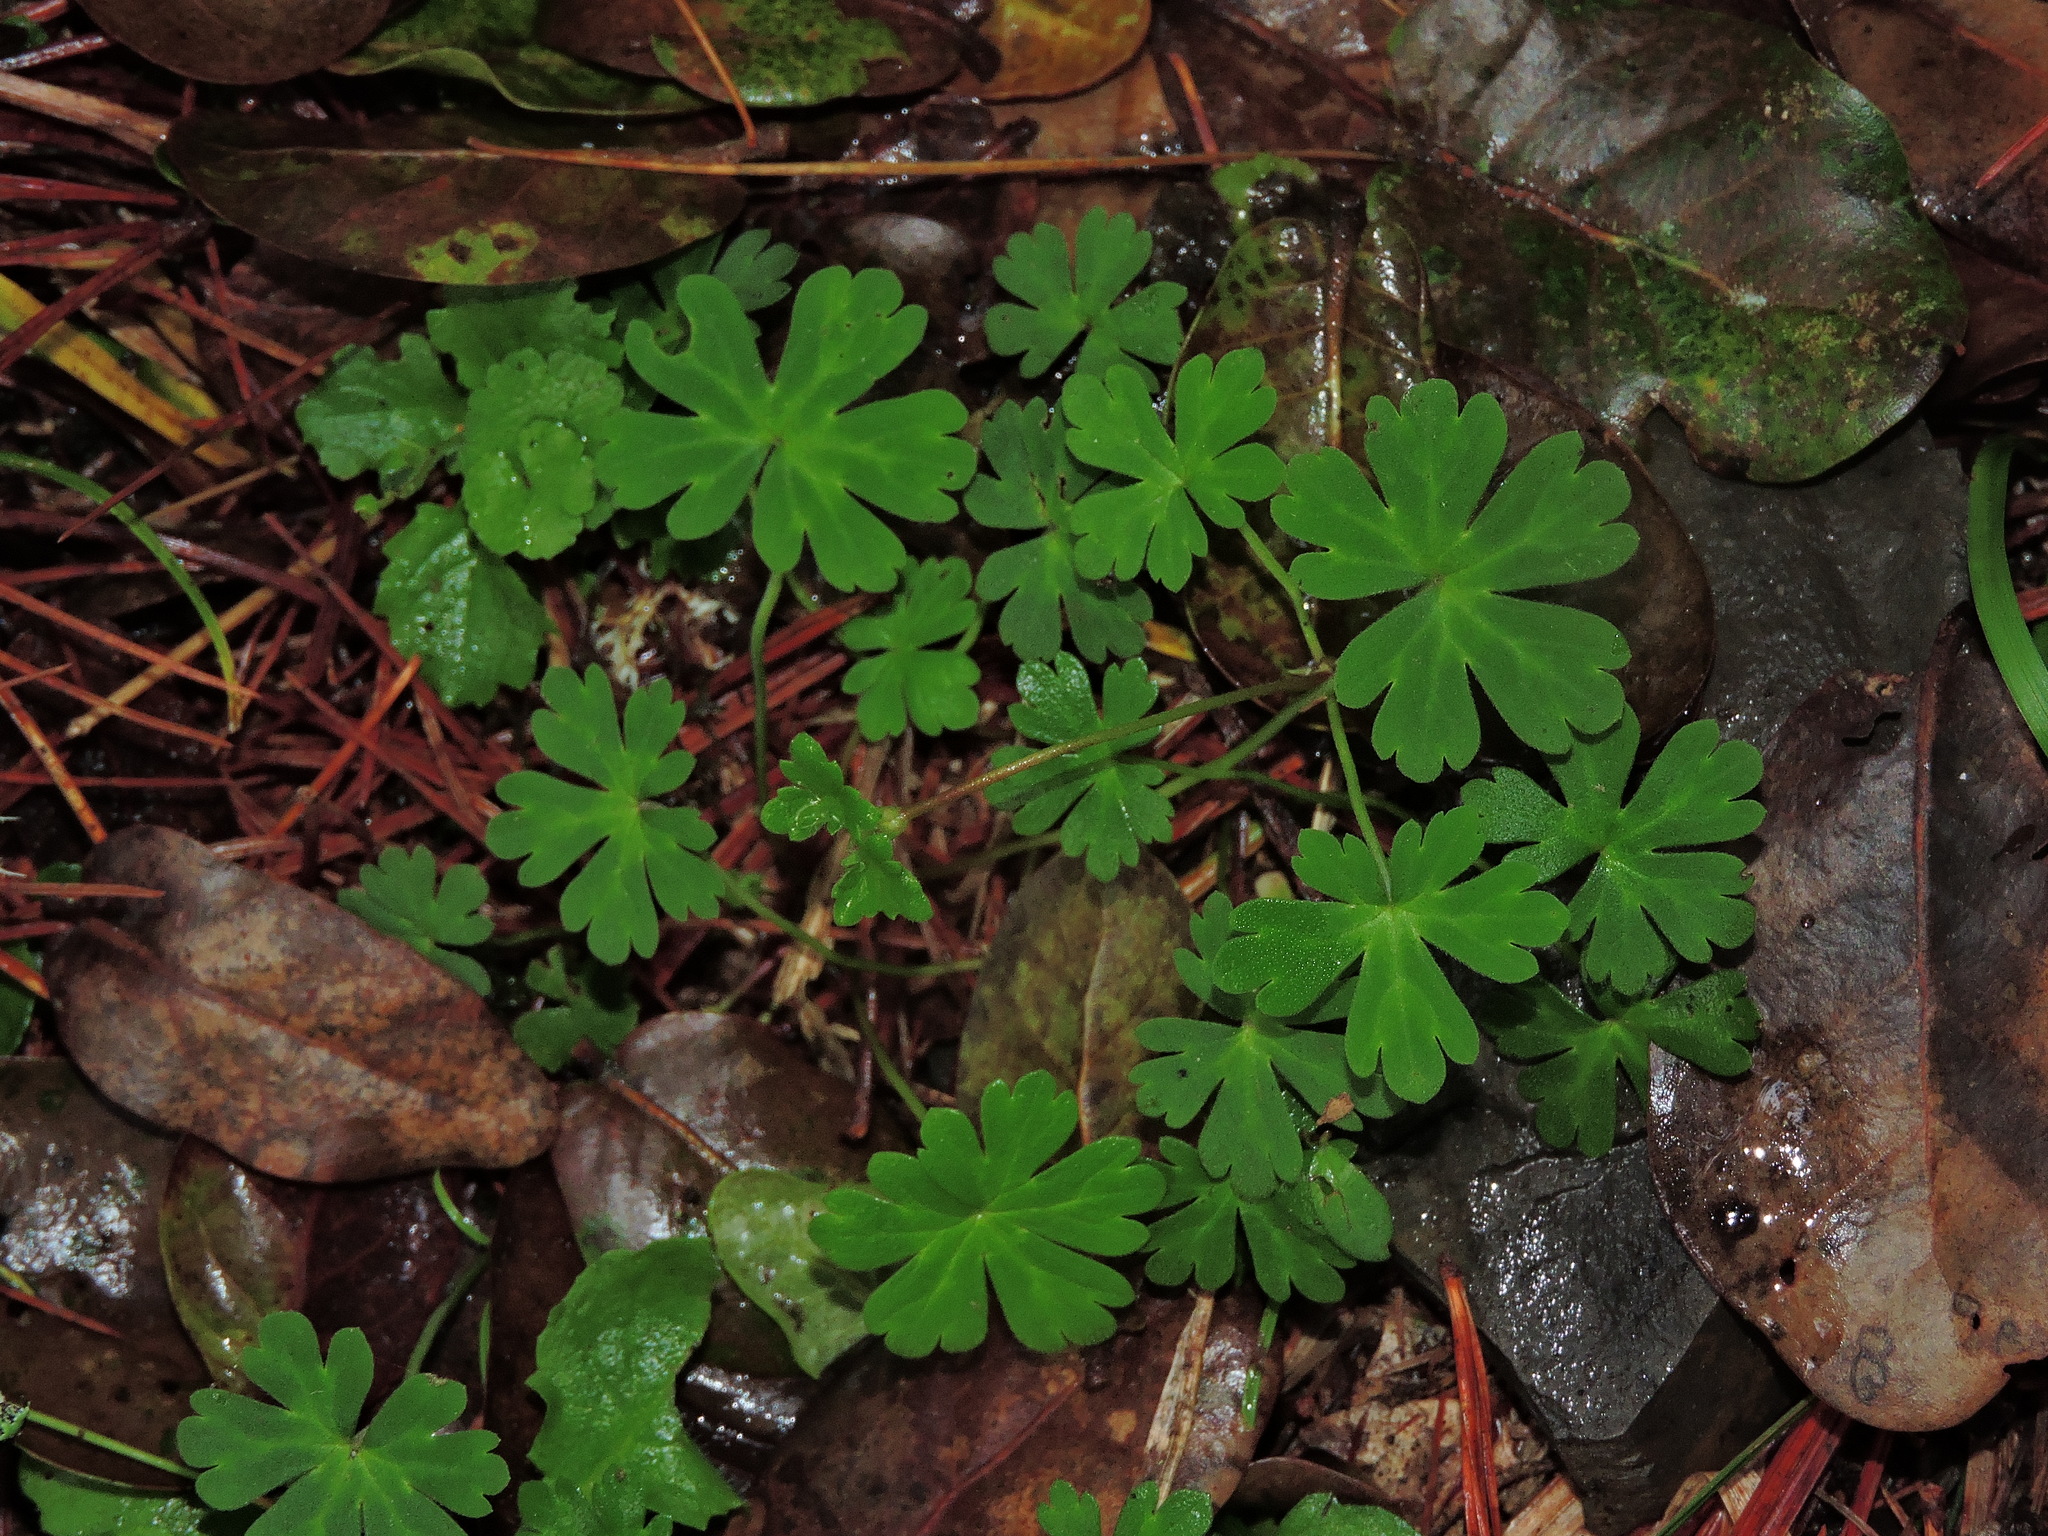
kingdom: Plantae
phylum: Tracheophyta
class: Magnoliopsida
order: Geraniales
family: Geraniaceae
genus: Geranium
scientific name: Geranium suzukii
